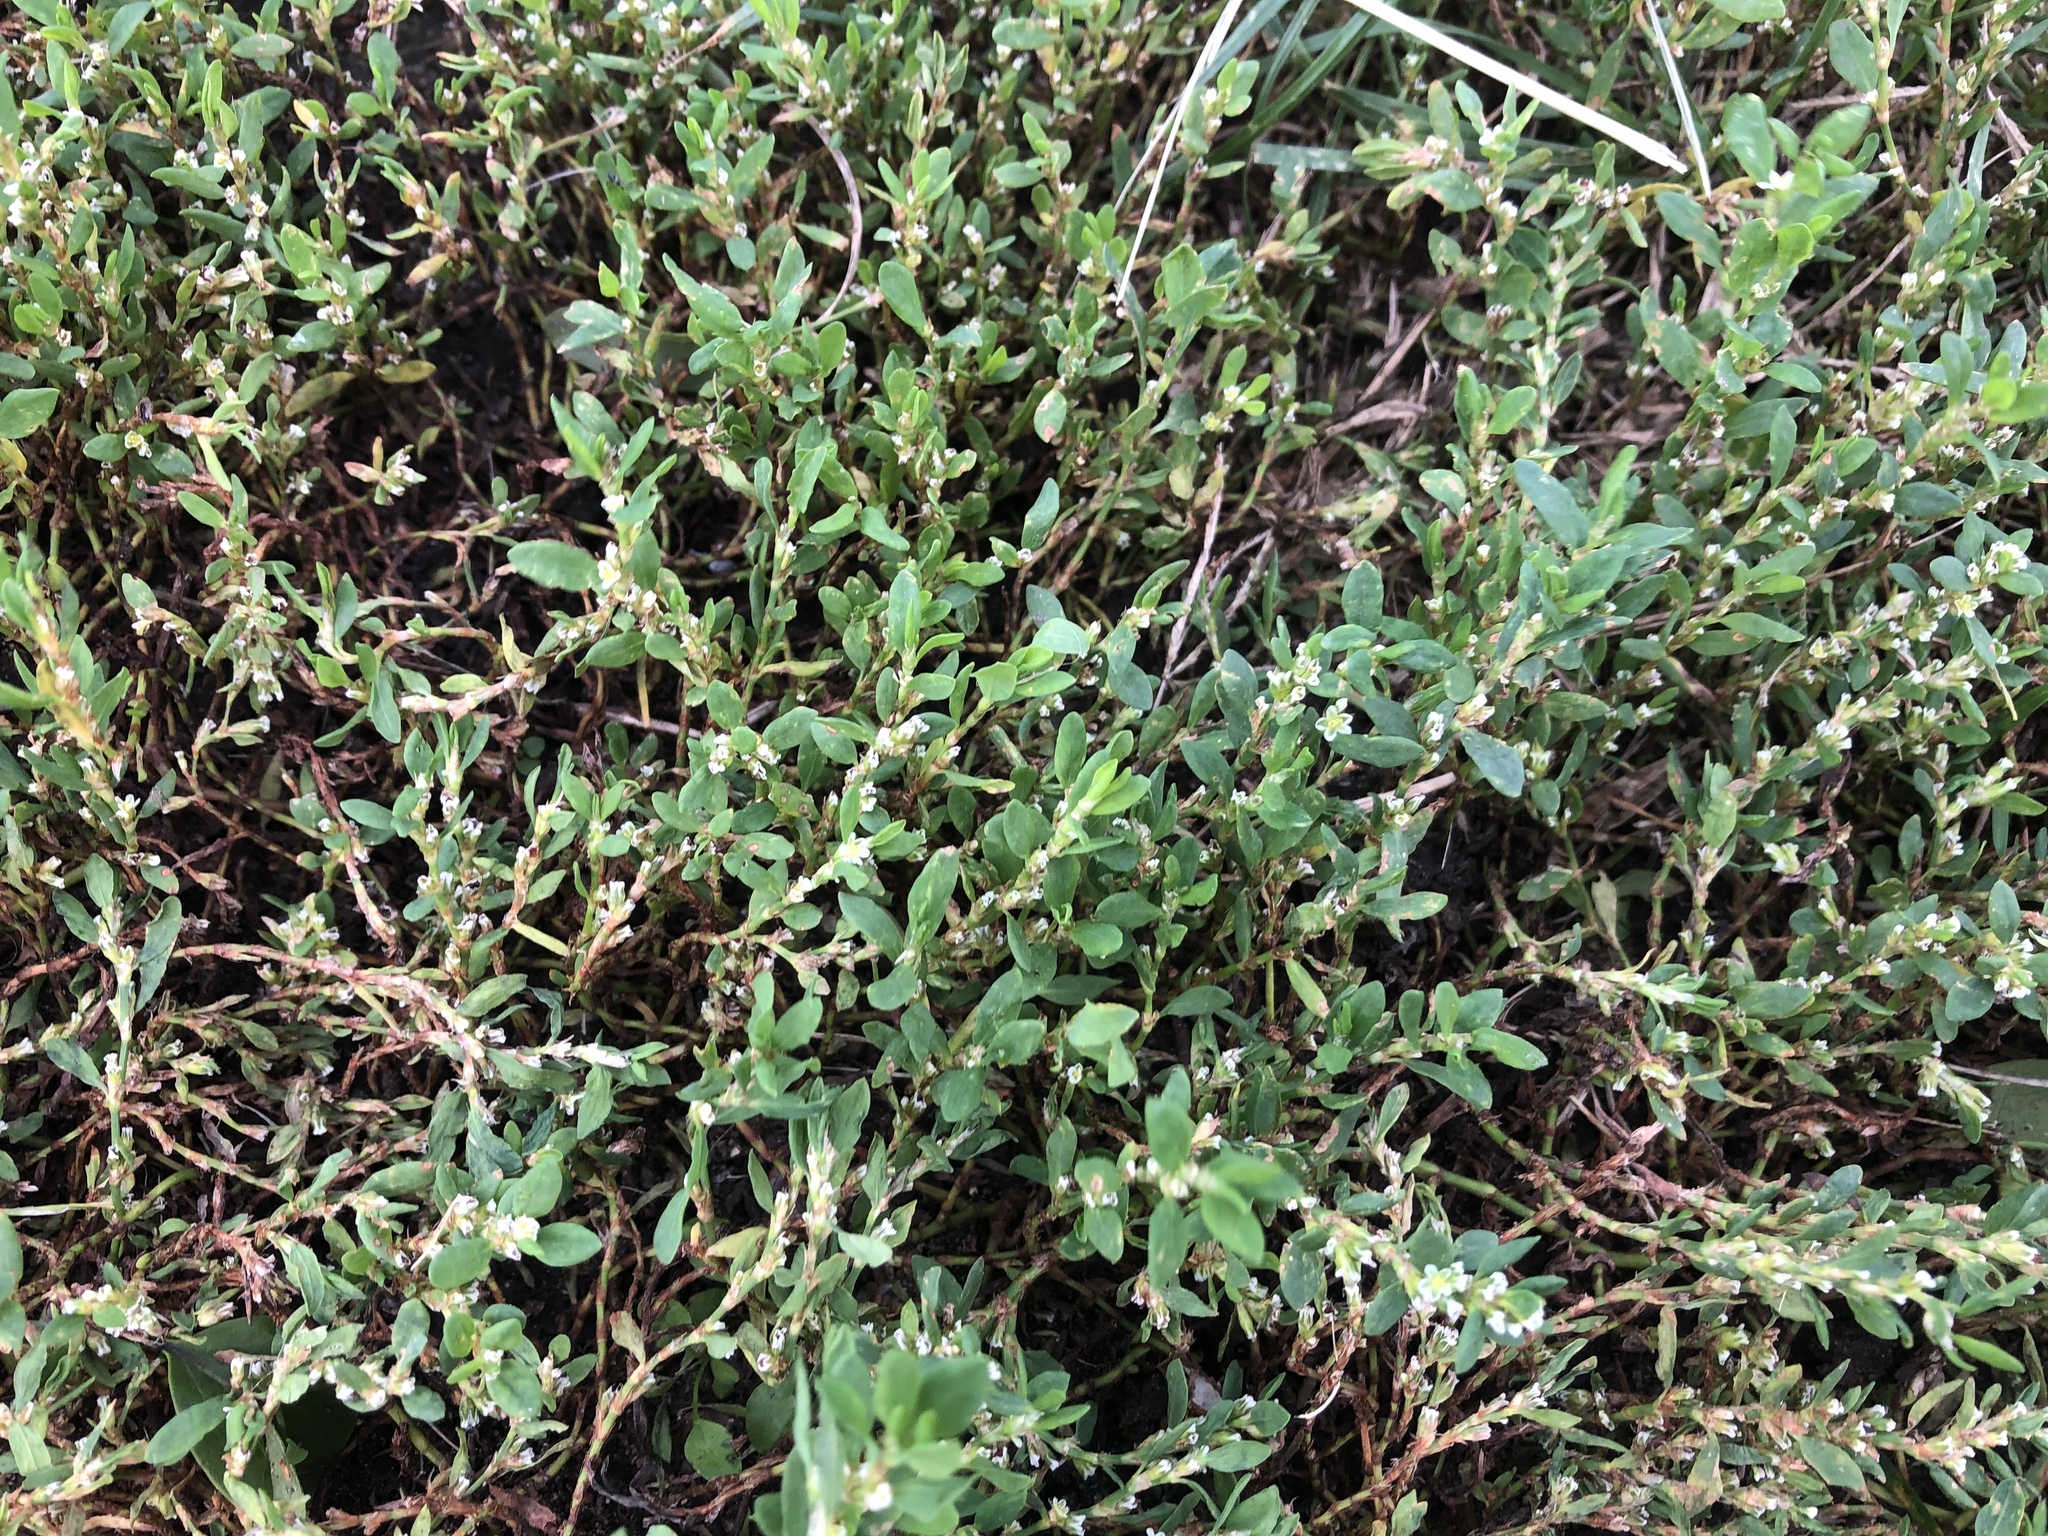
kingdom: Plantae
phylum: Tracheophyta
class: Magnoliopsida
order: Caryophyllales
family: Polygonaceae
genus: Polygonum
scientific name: Polygonum
